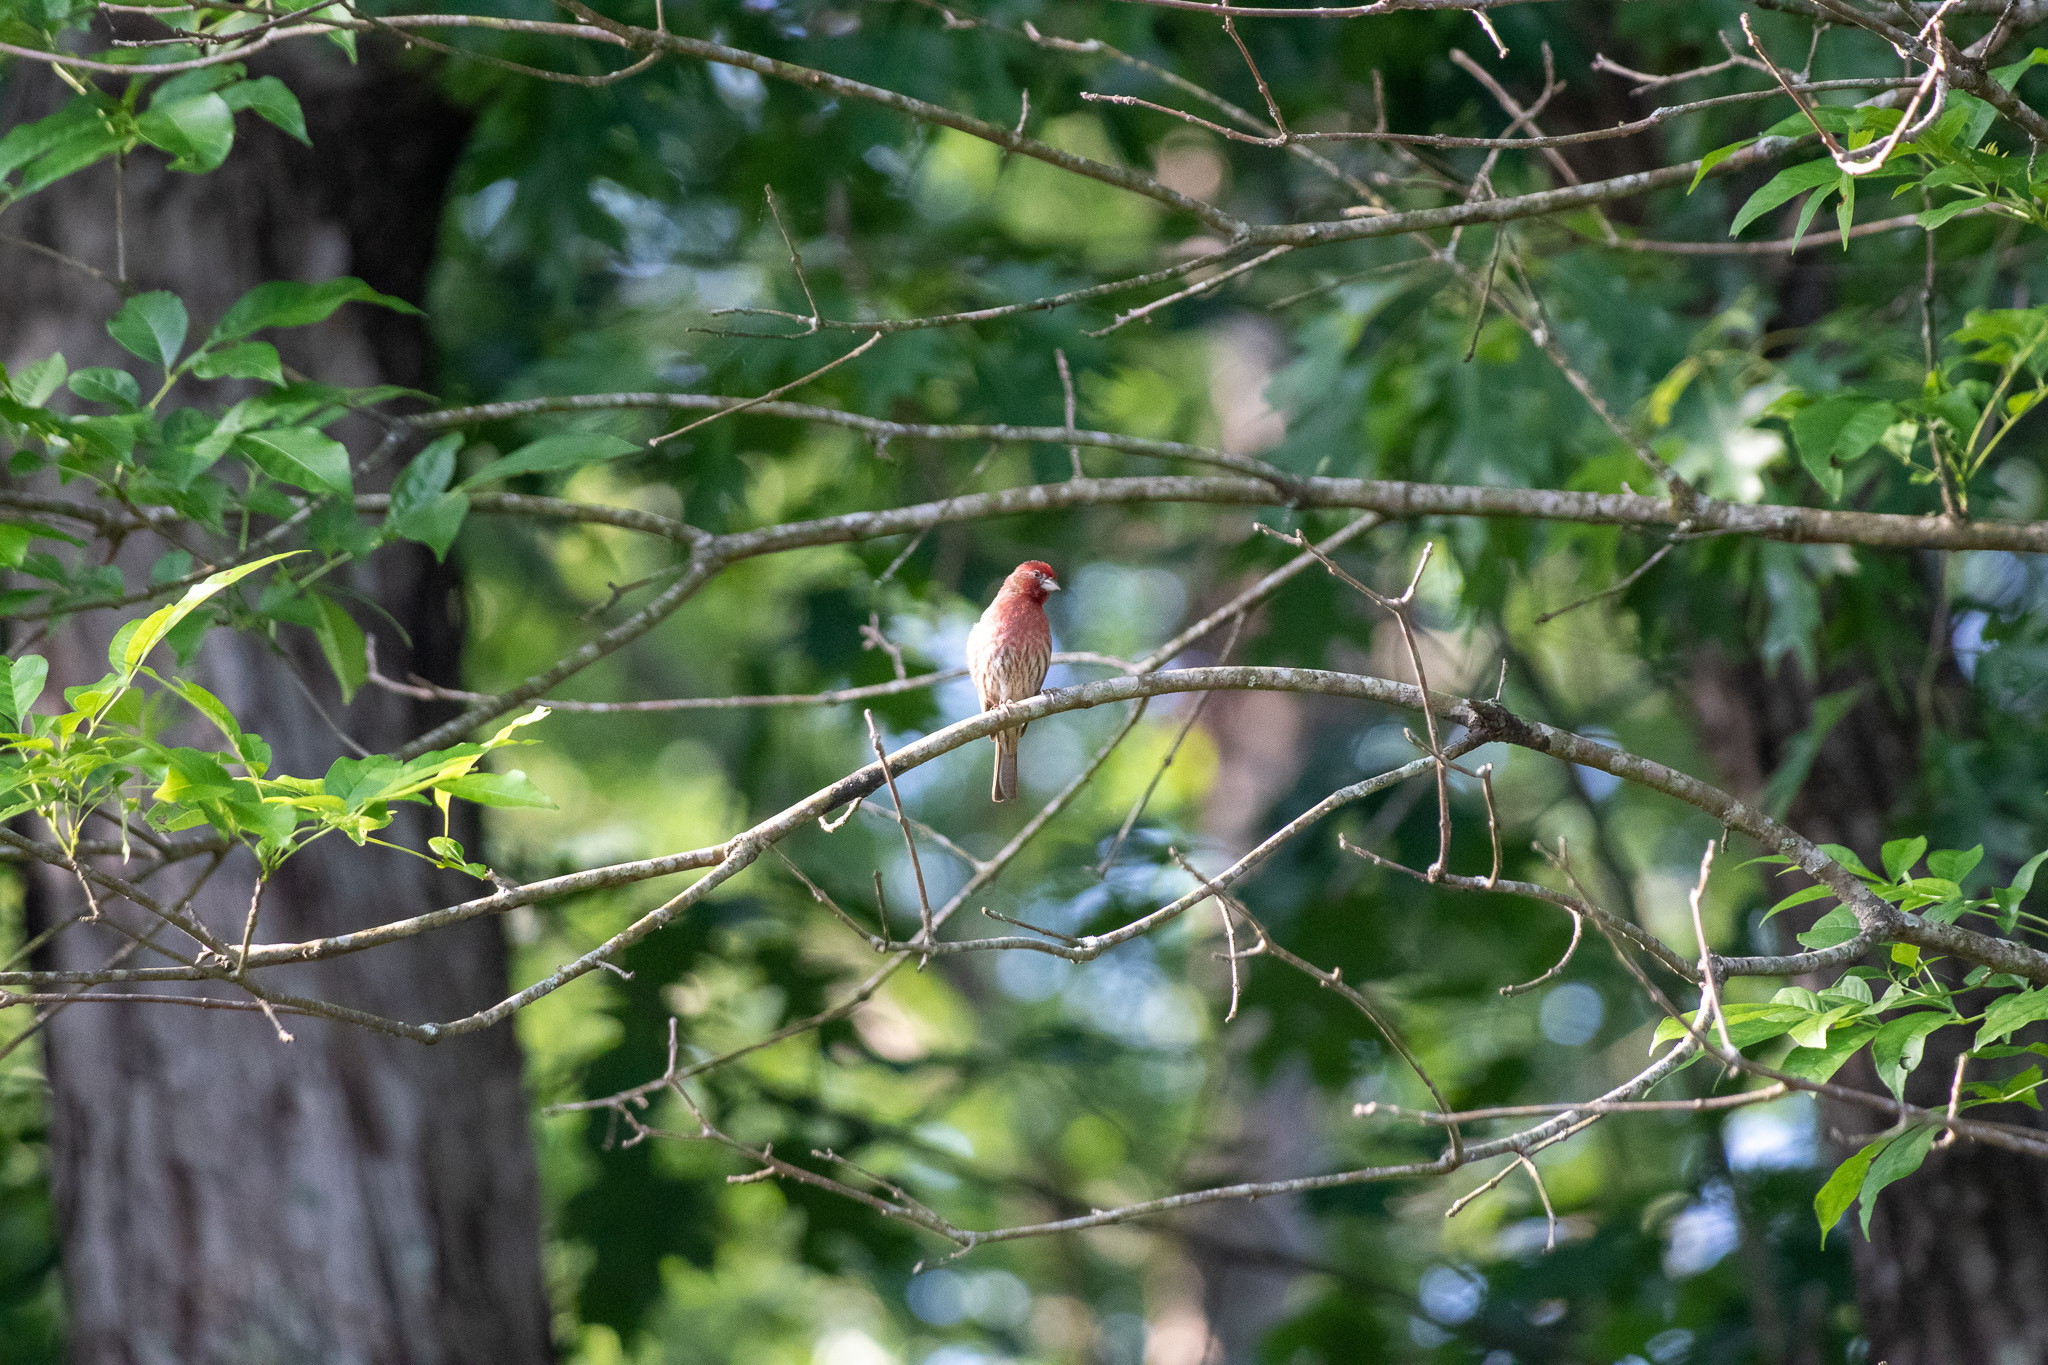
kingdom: Animalia
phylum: Chordata
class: Aves
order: Passeriformes
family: Fringillidae
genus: Haemorhous
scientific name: Haemorhous mexicanus
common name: House finch
